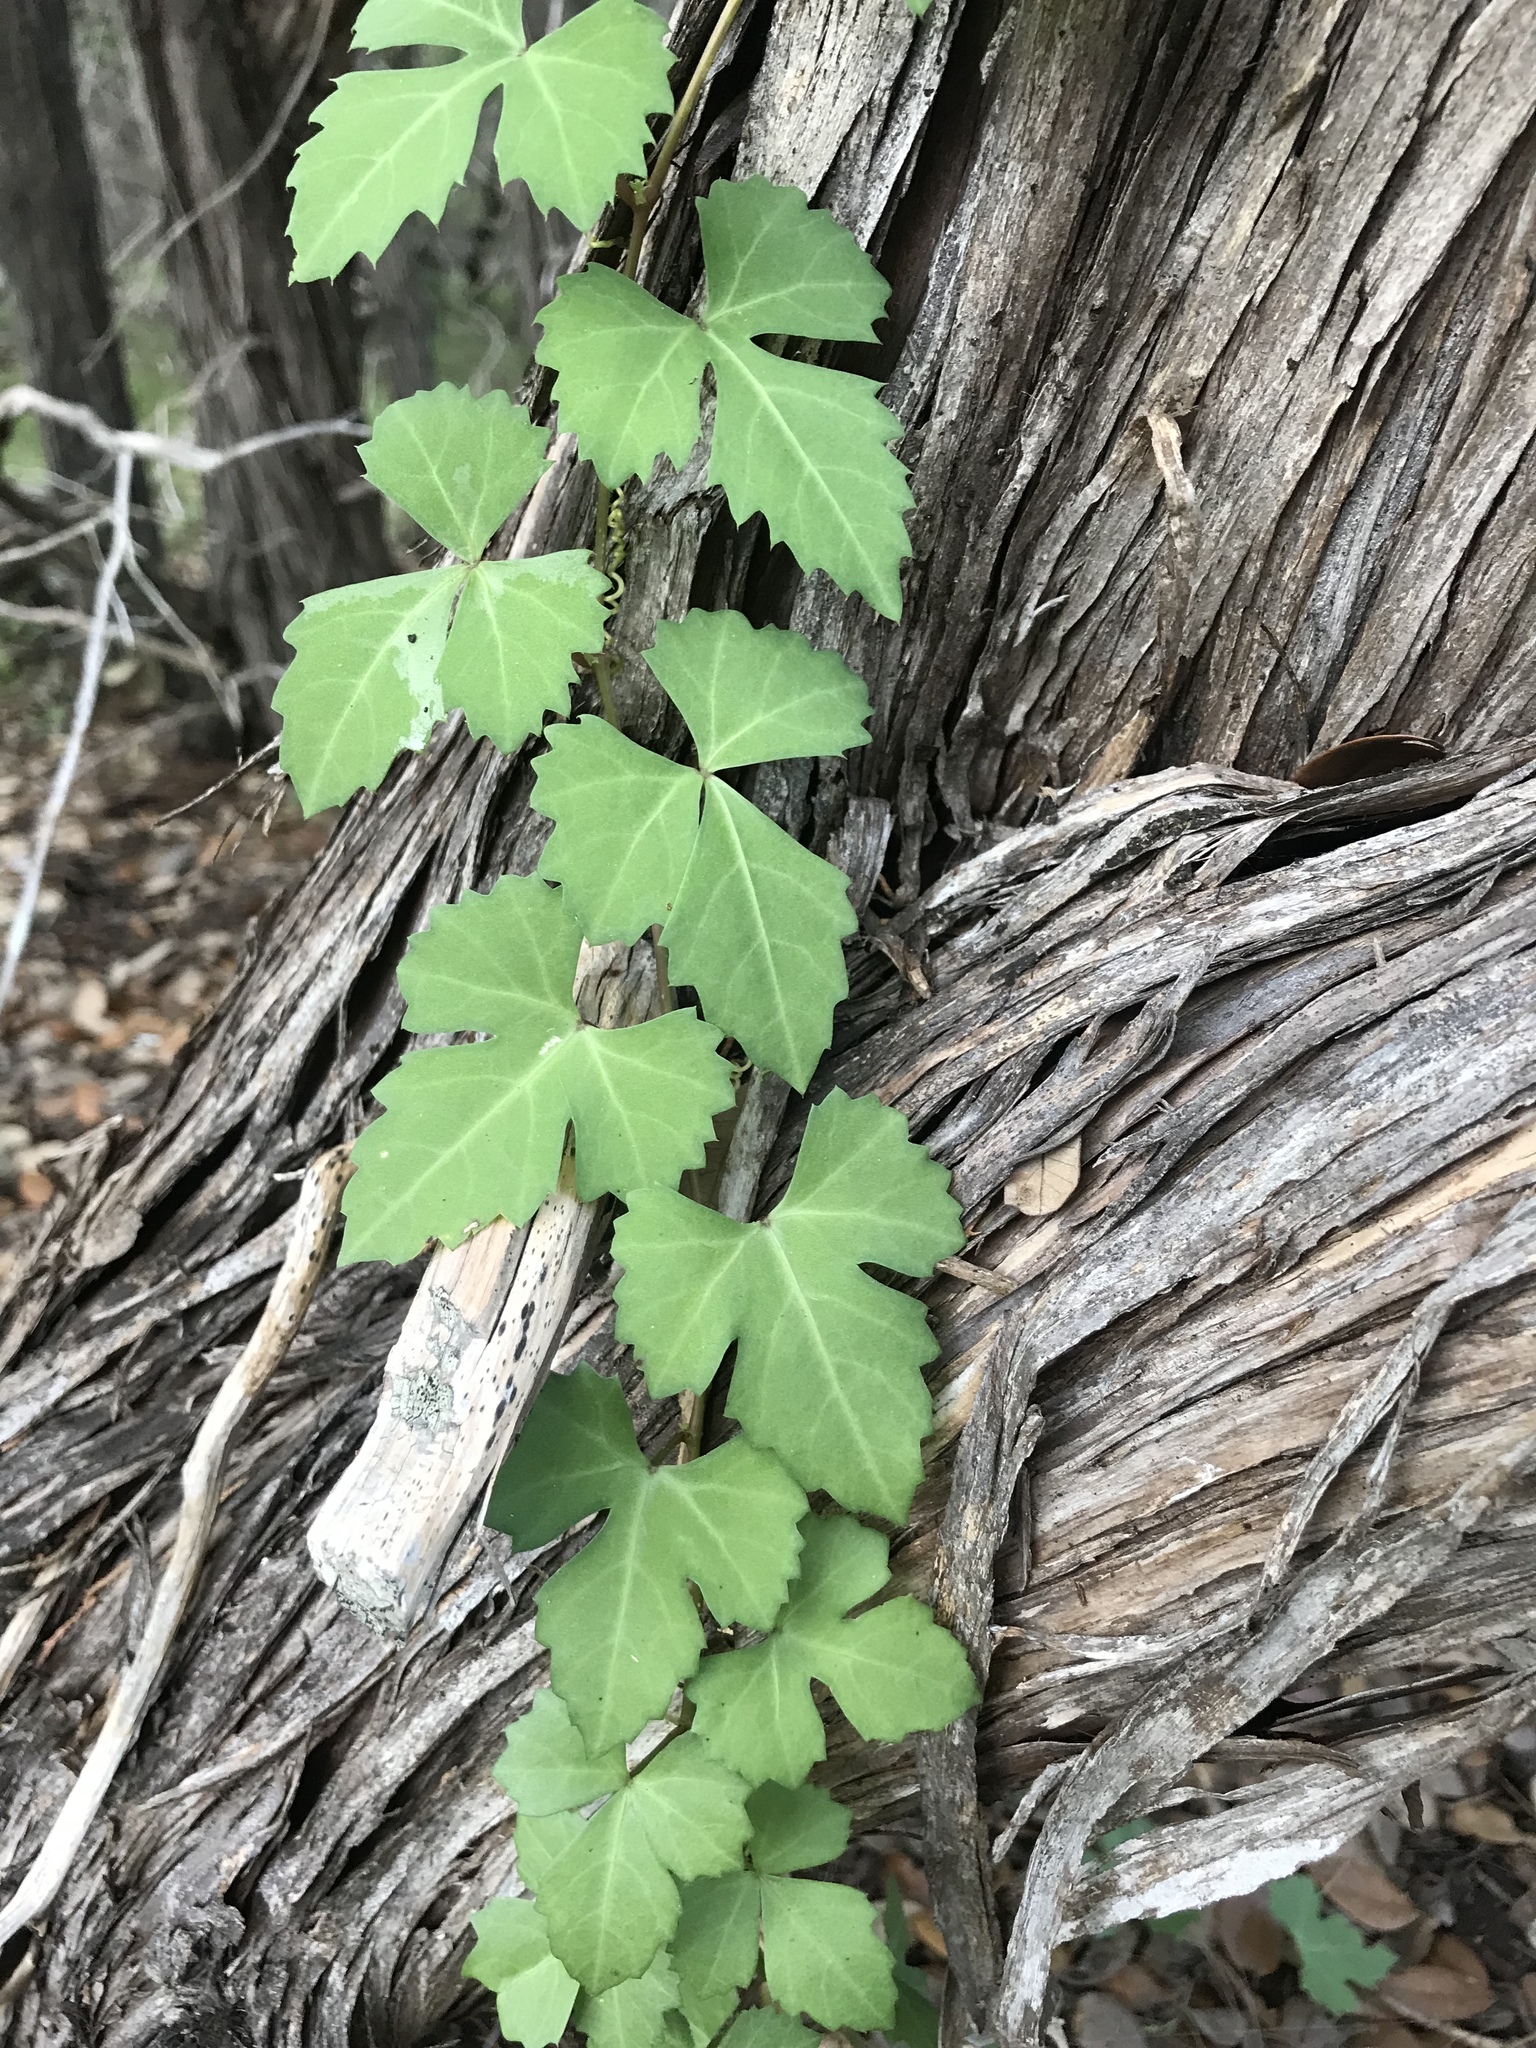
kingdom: Plantae
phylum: Tracheophyta
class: Magnoliopsida
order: Vitales
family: Vitaceae
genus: Cissus
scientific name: Cissus trifoliata
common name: Vine-sorrel
